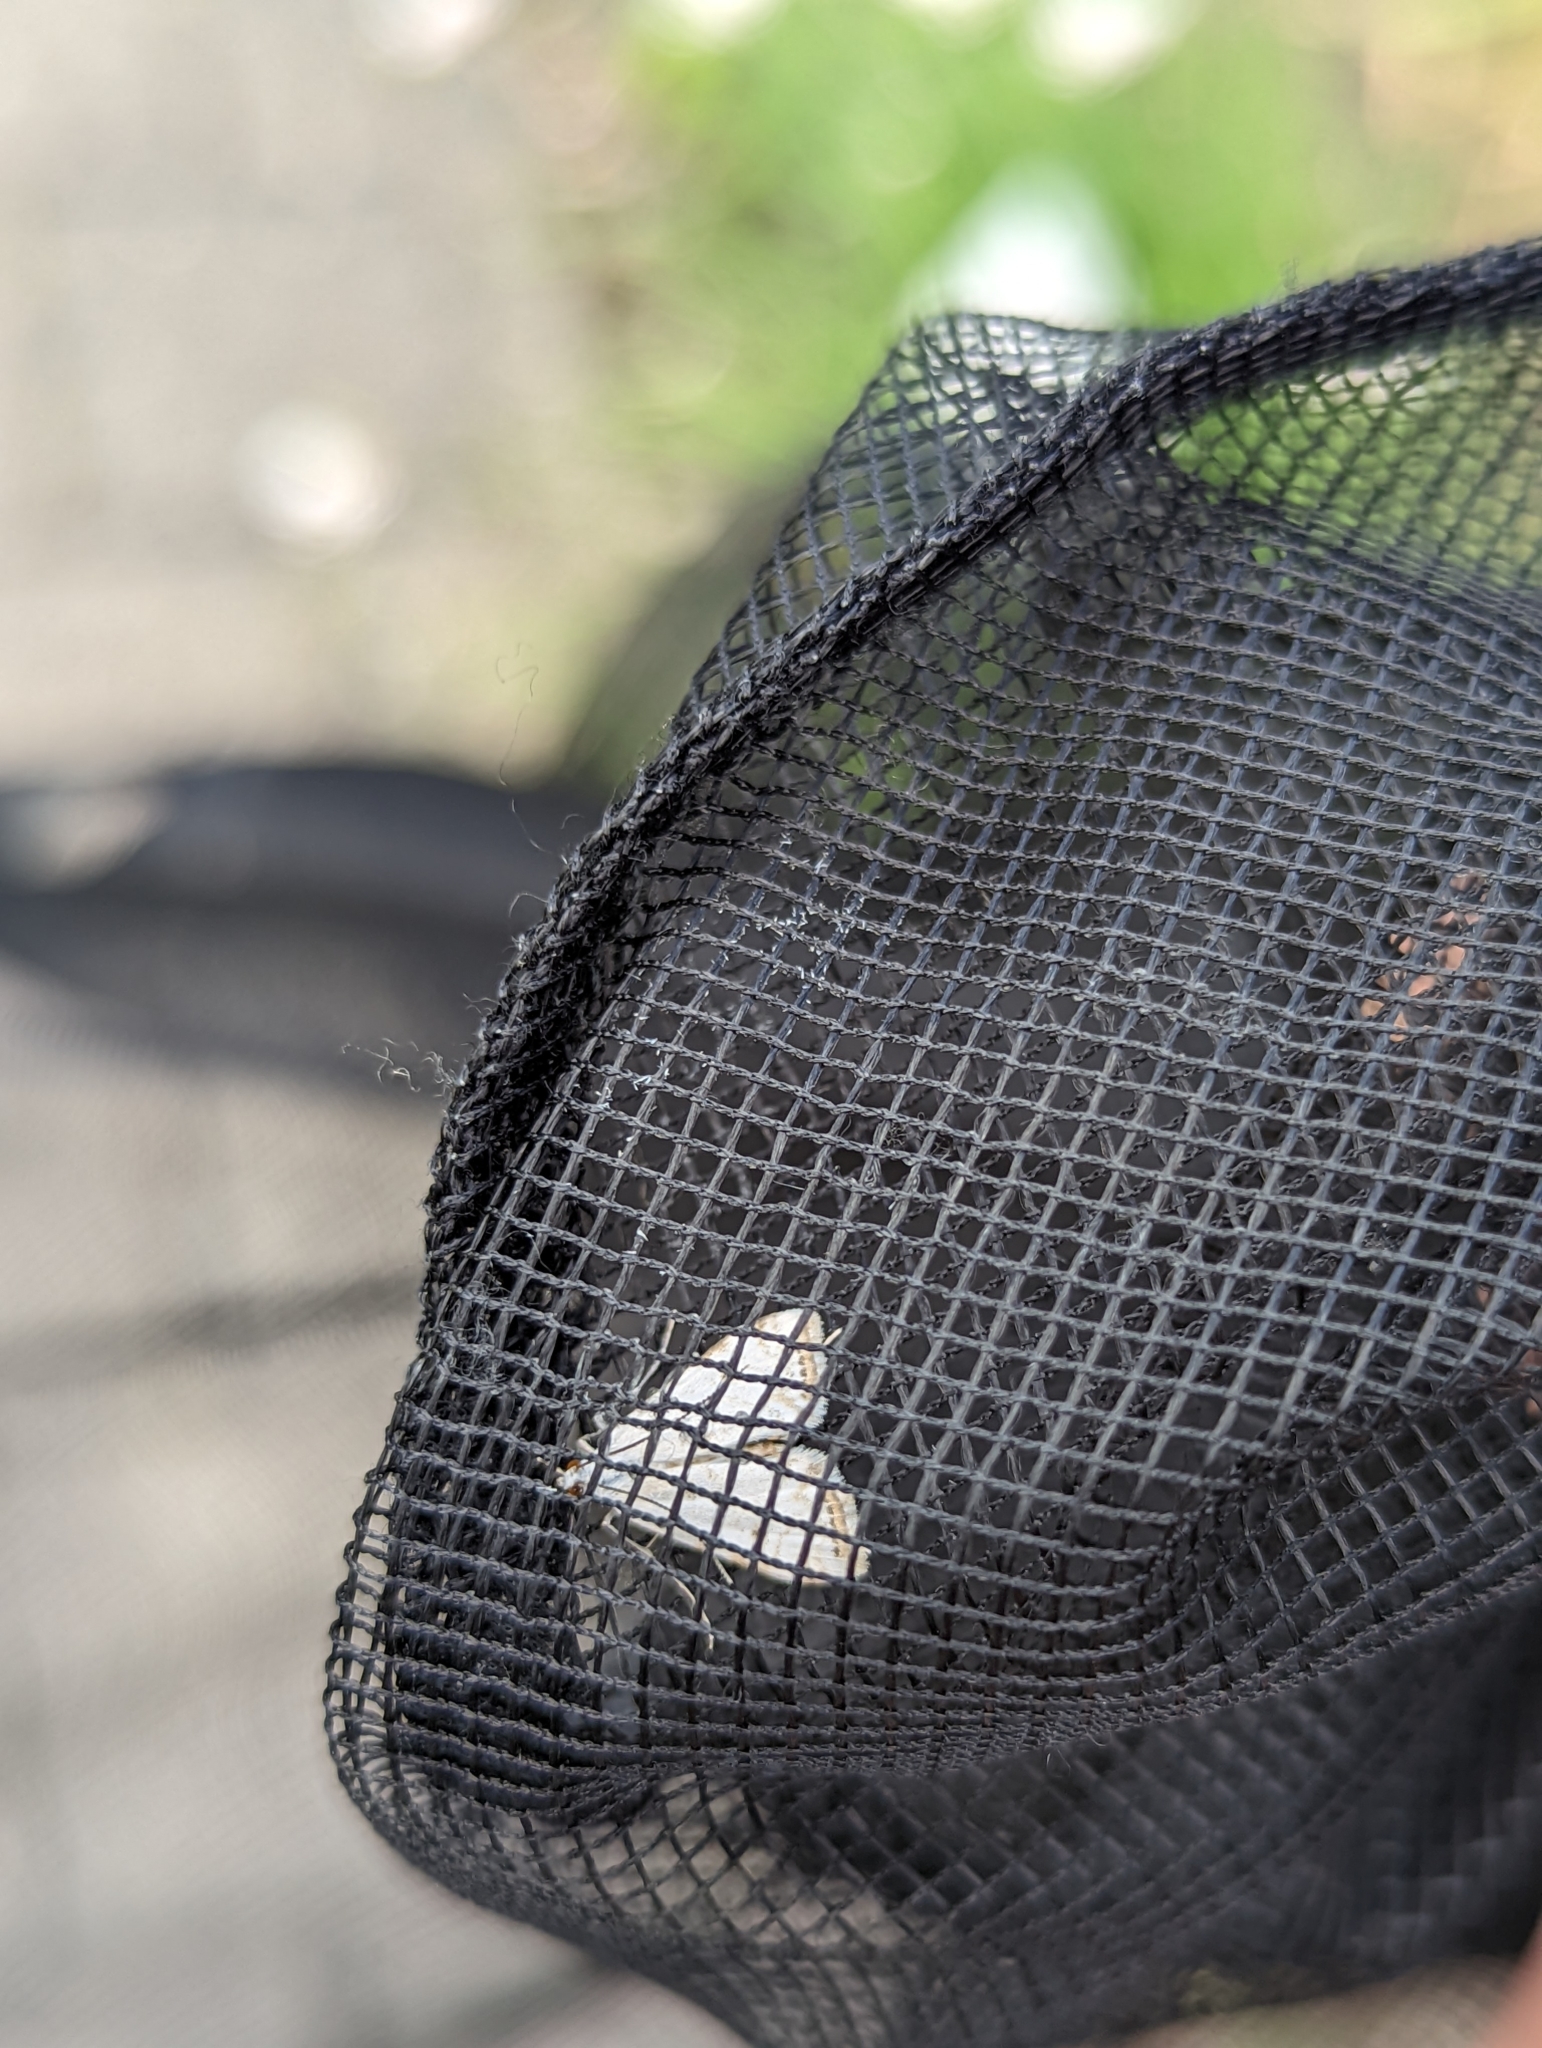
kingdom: Animalia
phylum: Arthropoda
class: Insecta
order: Lepidoptera
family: Crambidae
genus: Cataclysta
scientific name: Cataclysta lemnata
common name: Small china-mark
